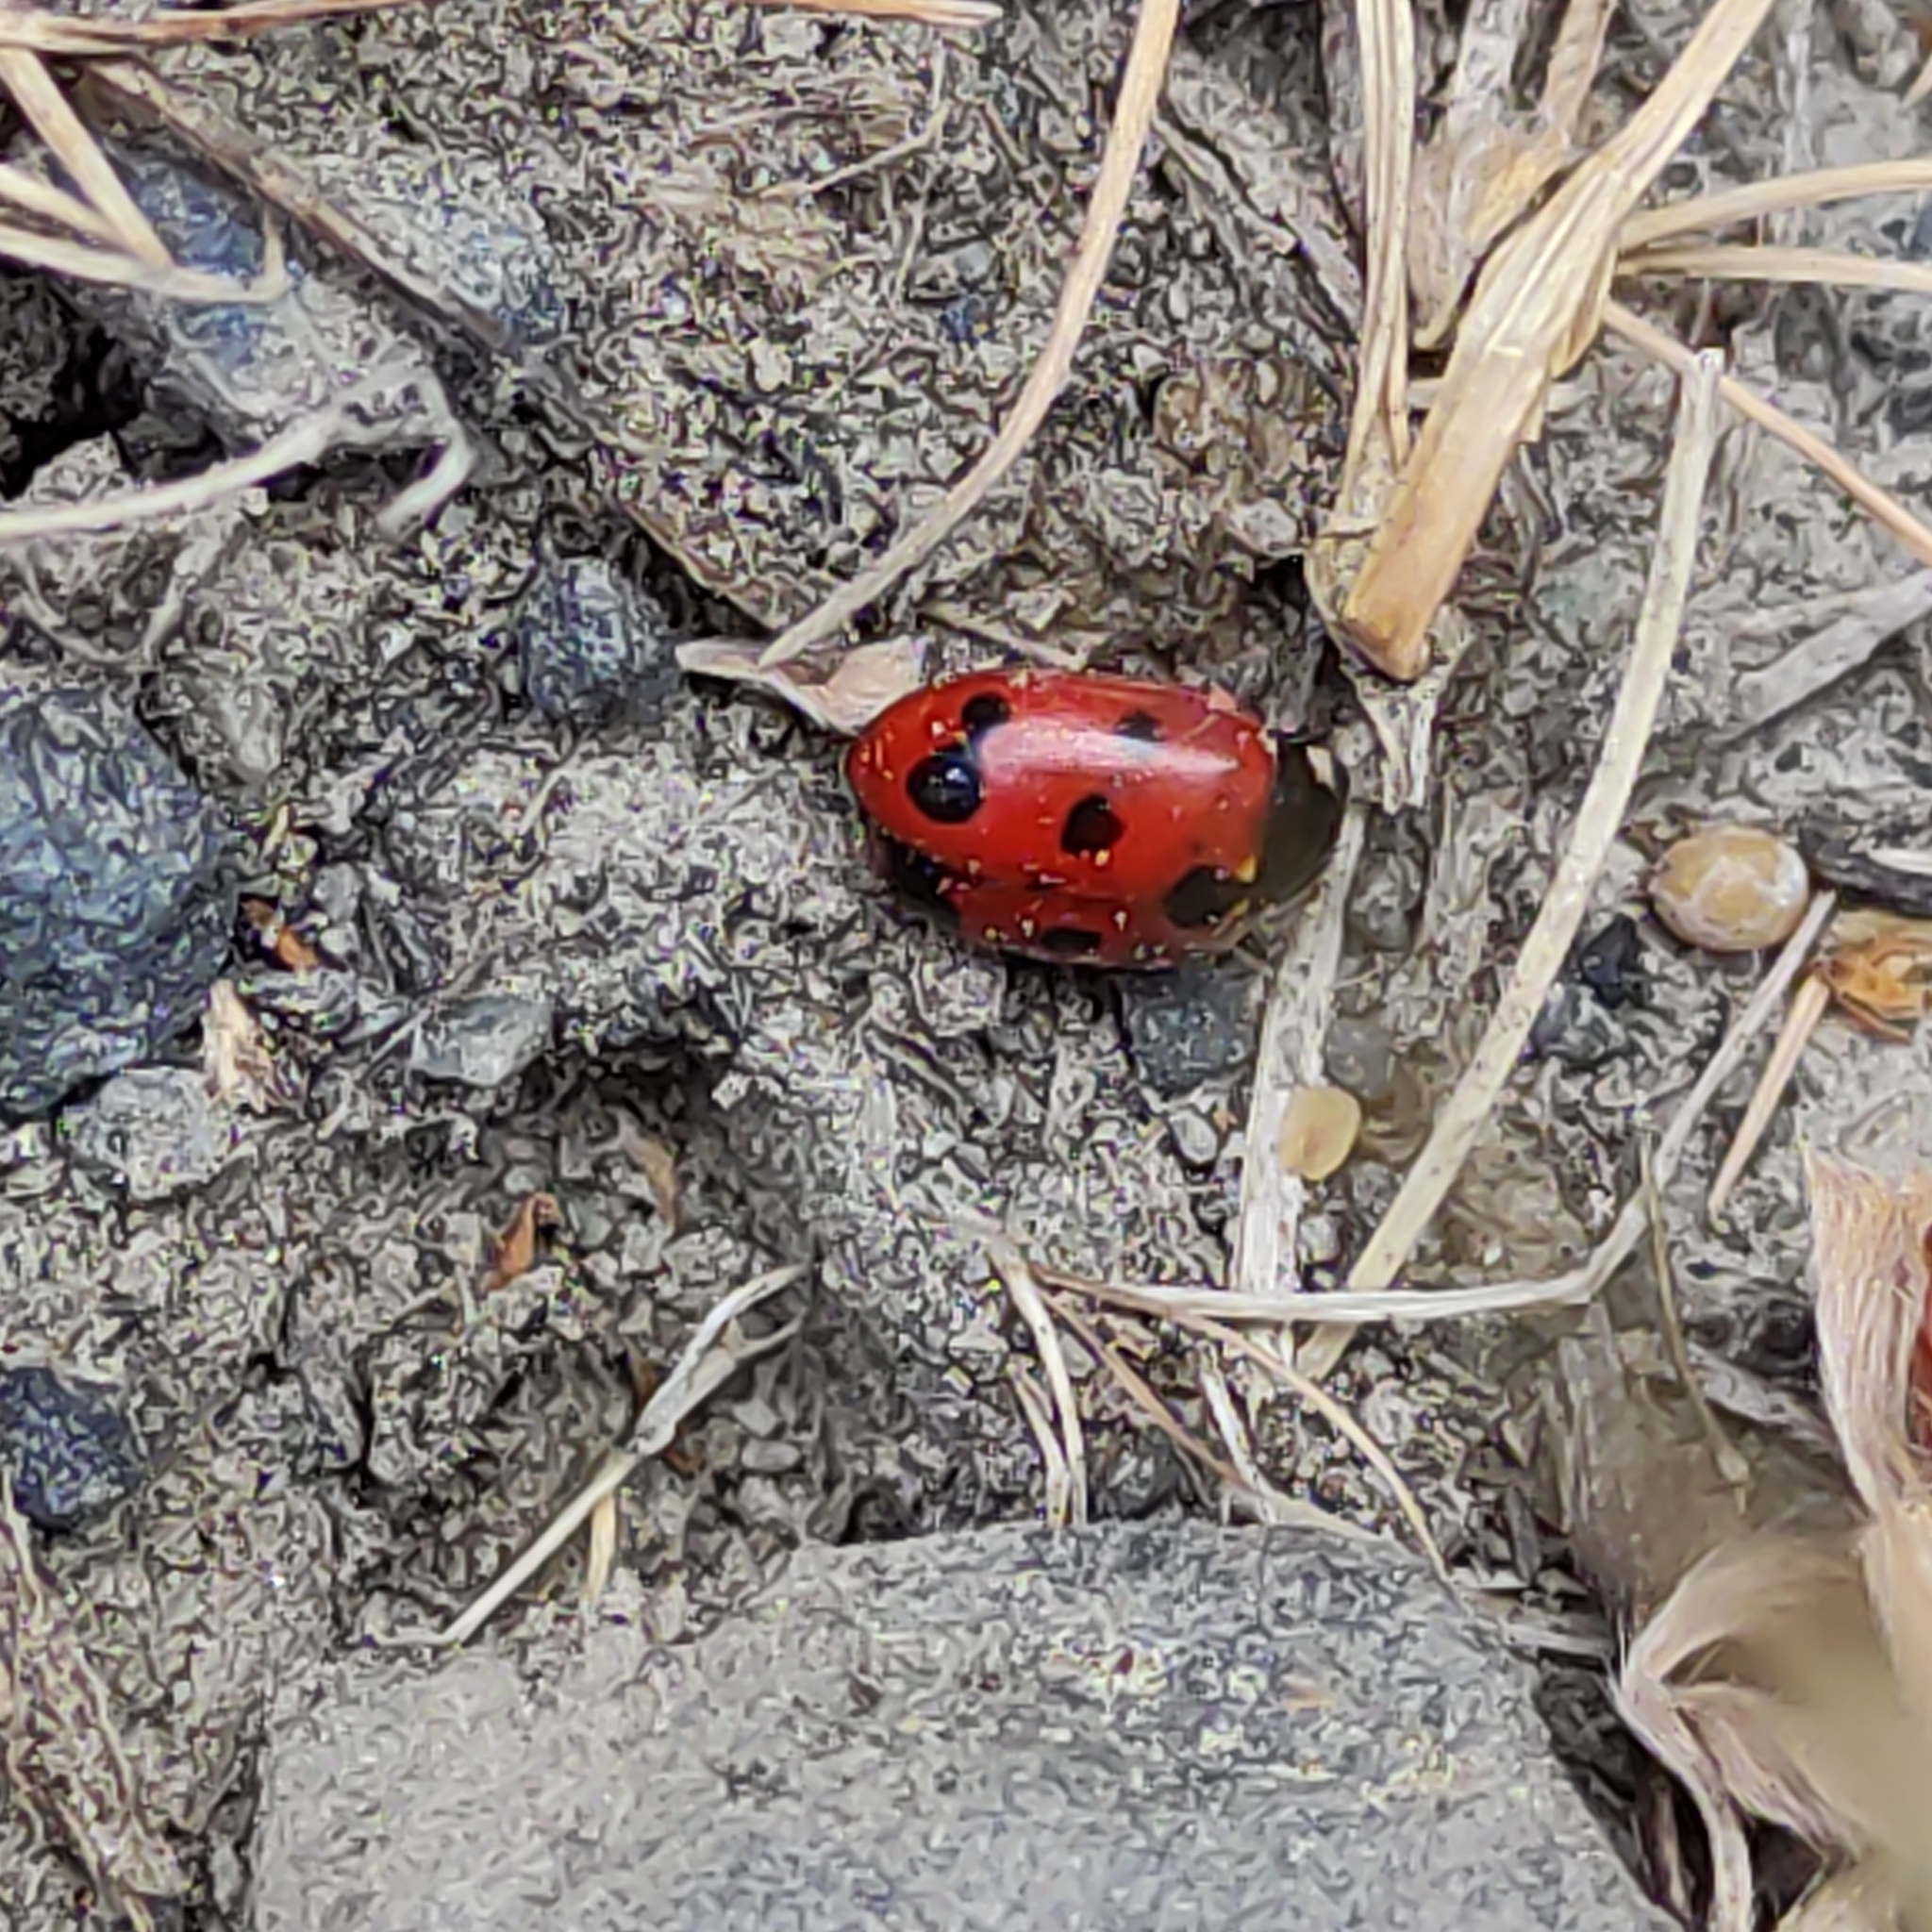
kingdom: Animalia
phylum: Arthropoda
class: Insecta
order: Coleoptera
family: Coccinellidae
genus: Coccinella
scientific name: Coccinella undecimpunctata
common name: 11-spot ladybird
